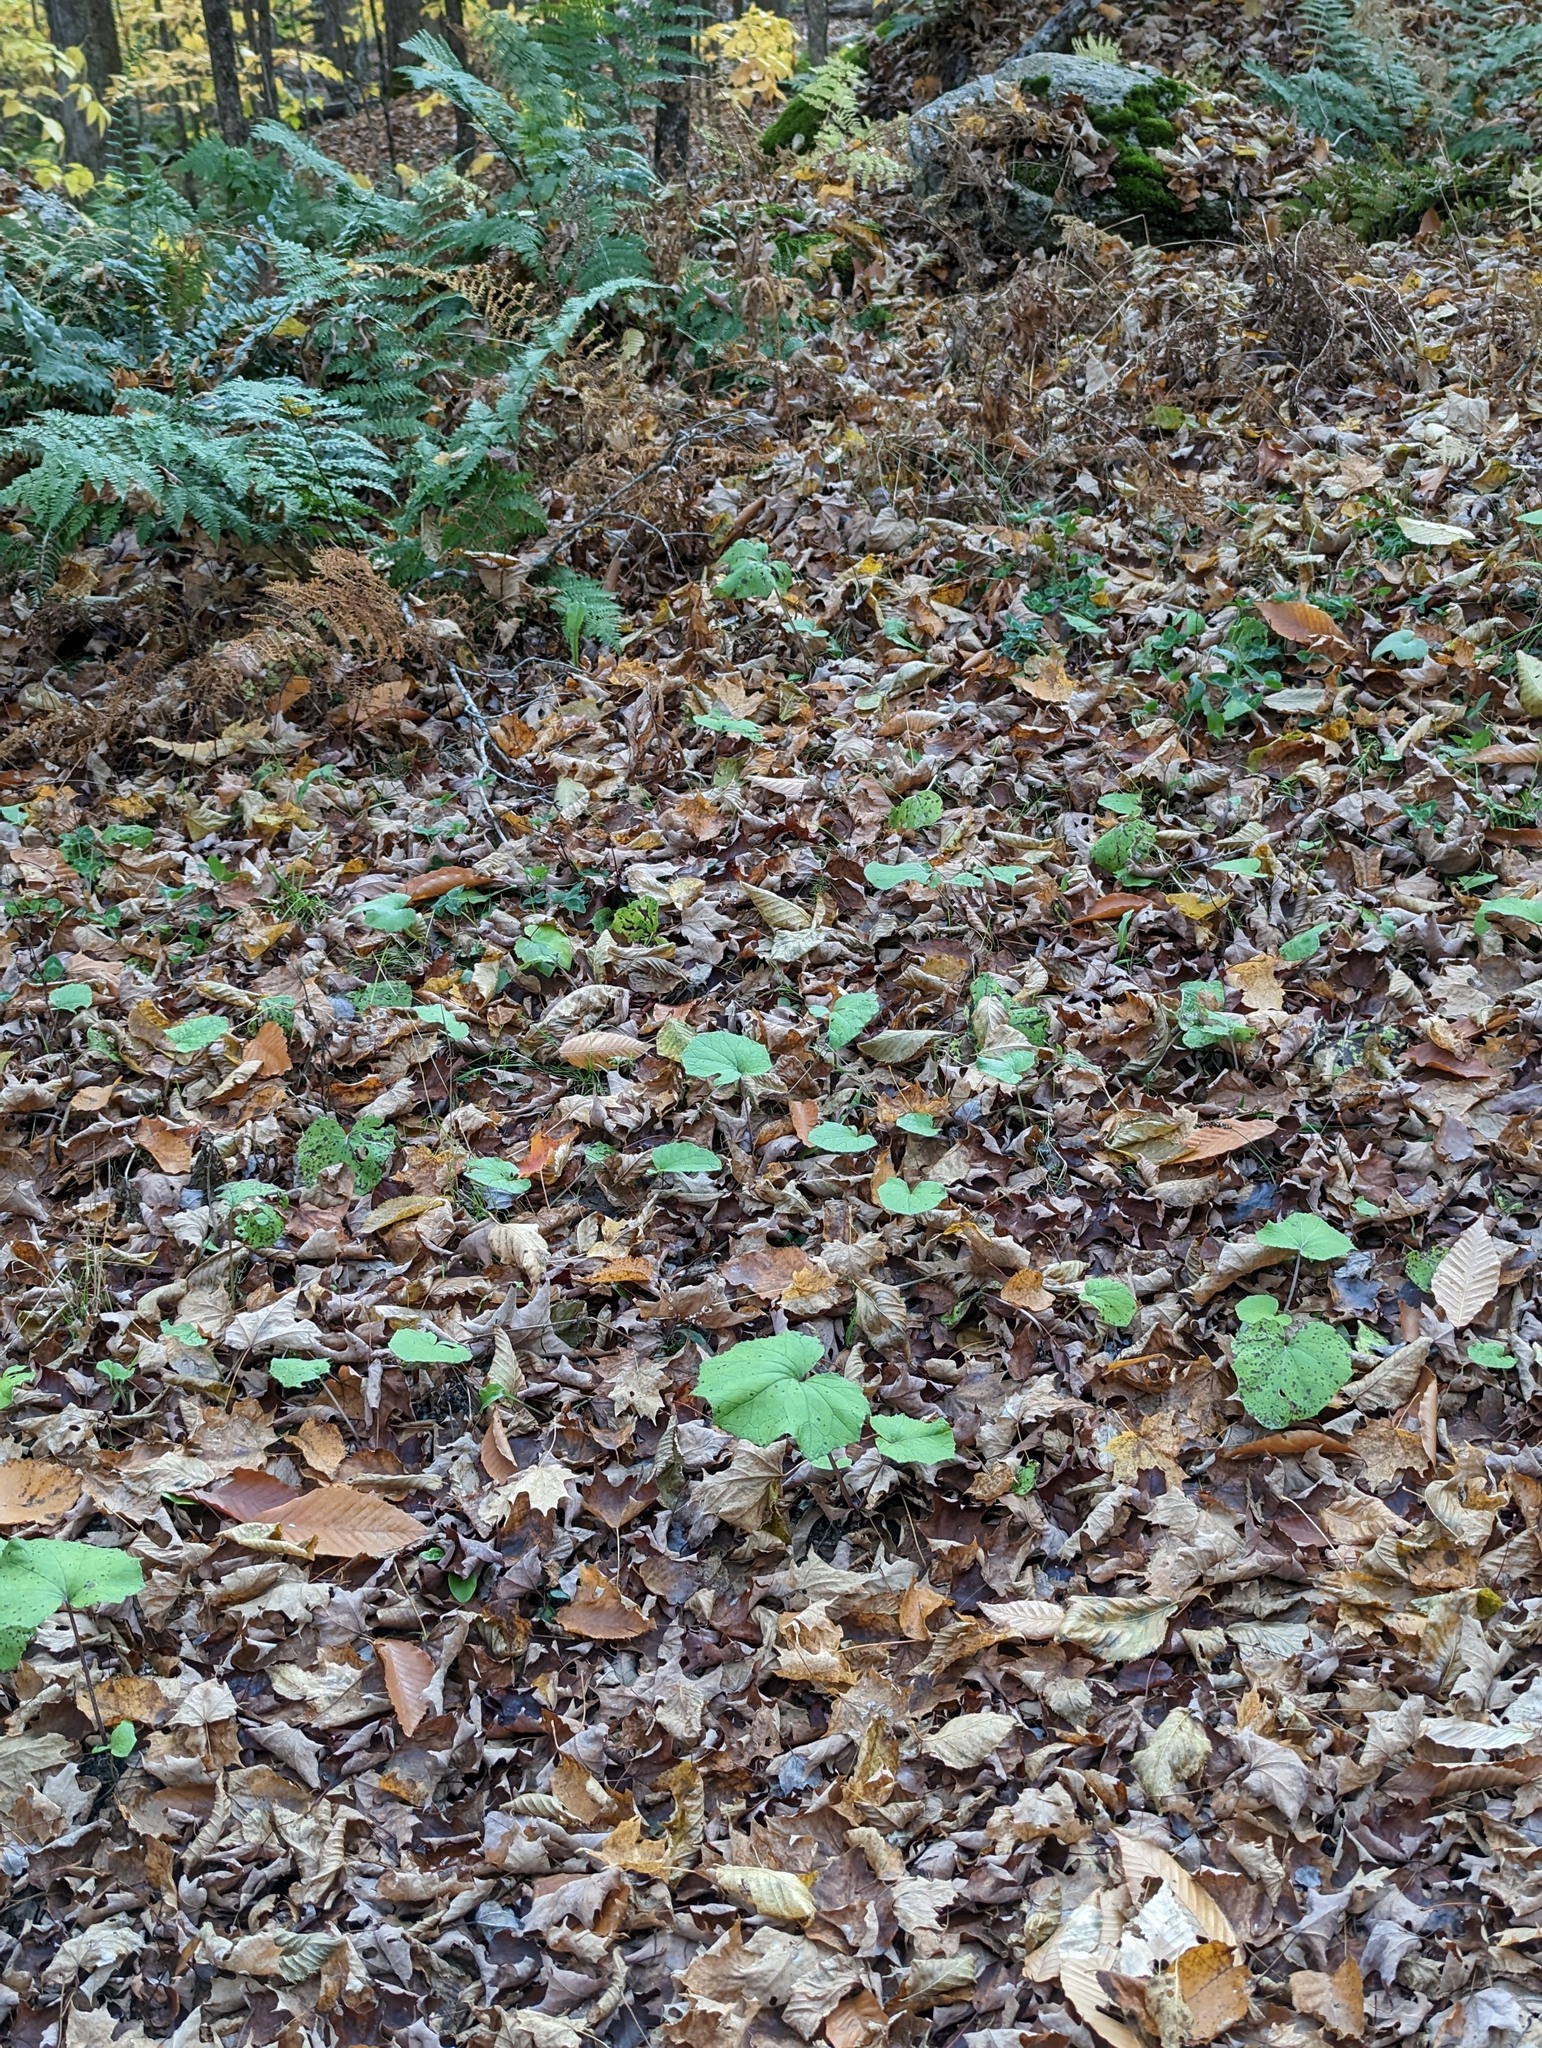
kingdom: Plantae
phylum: Tracheophyta
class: Magnoliopsida
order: Asterales
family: Asteraceae
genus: Tussilago
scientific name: Tussilago farfara
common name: Coltsfoot
